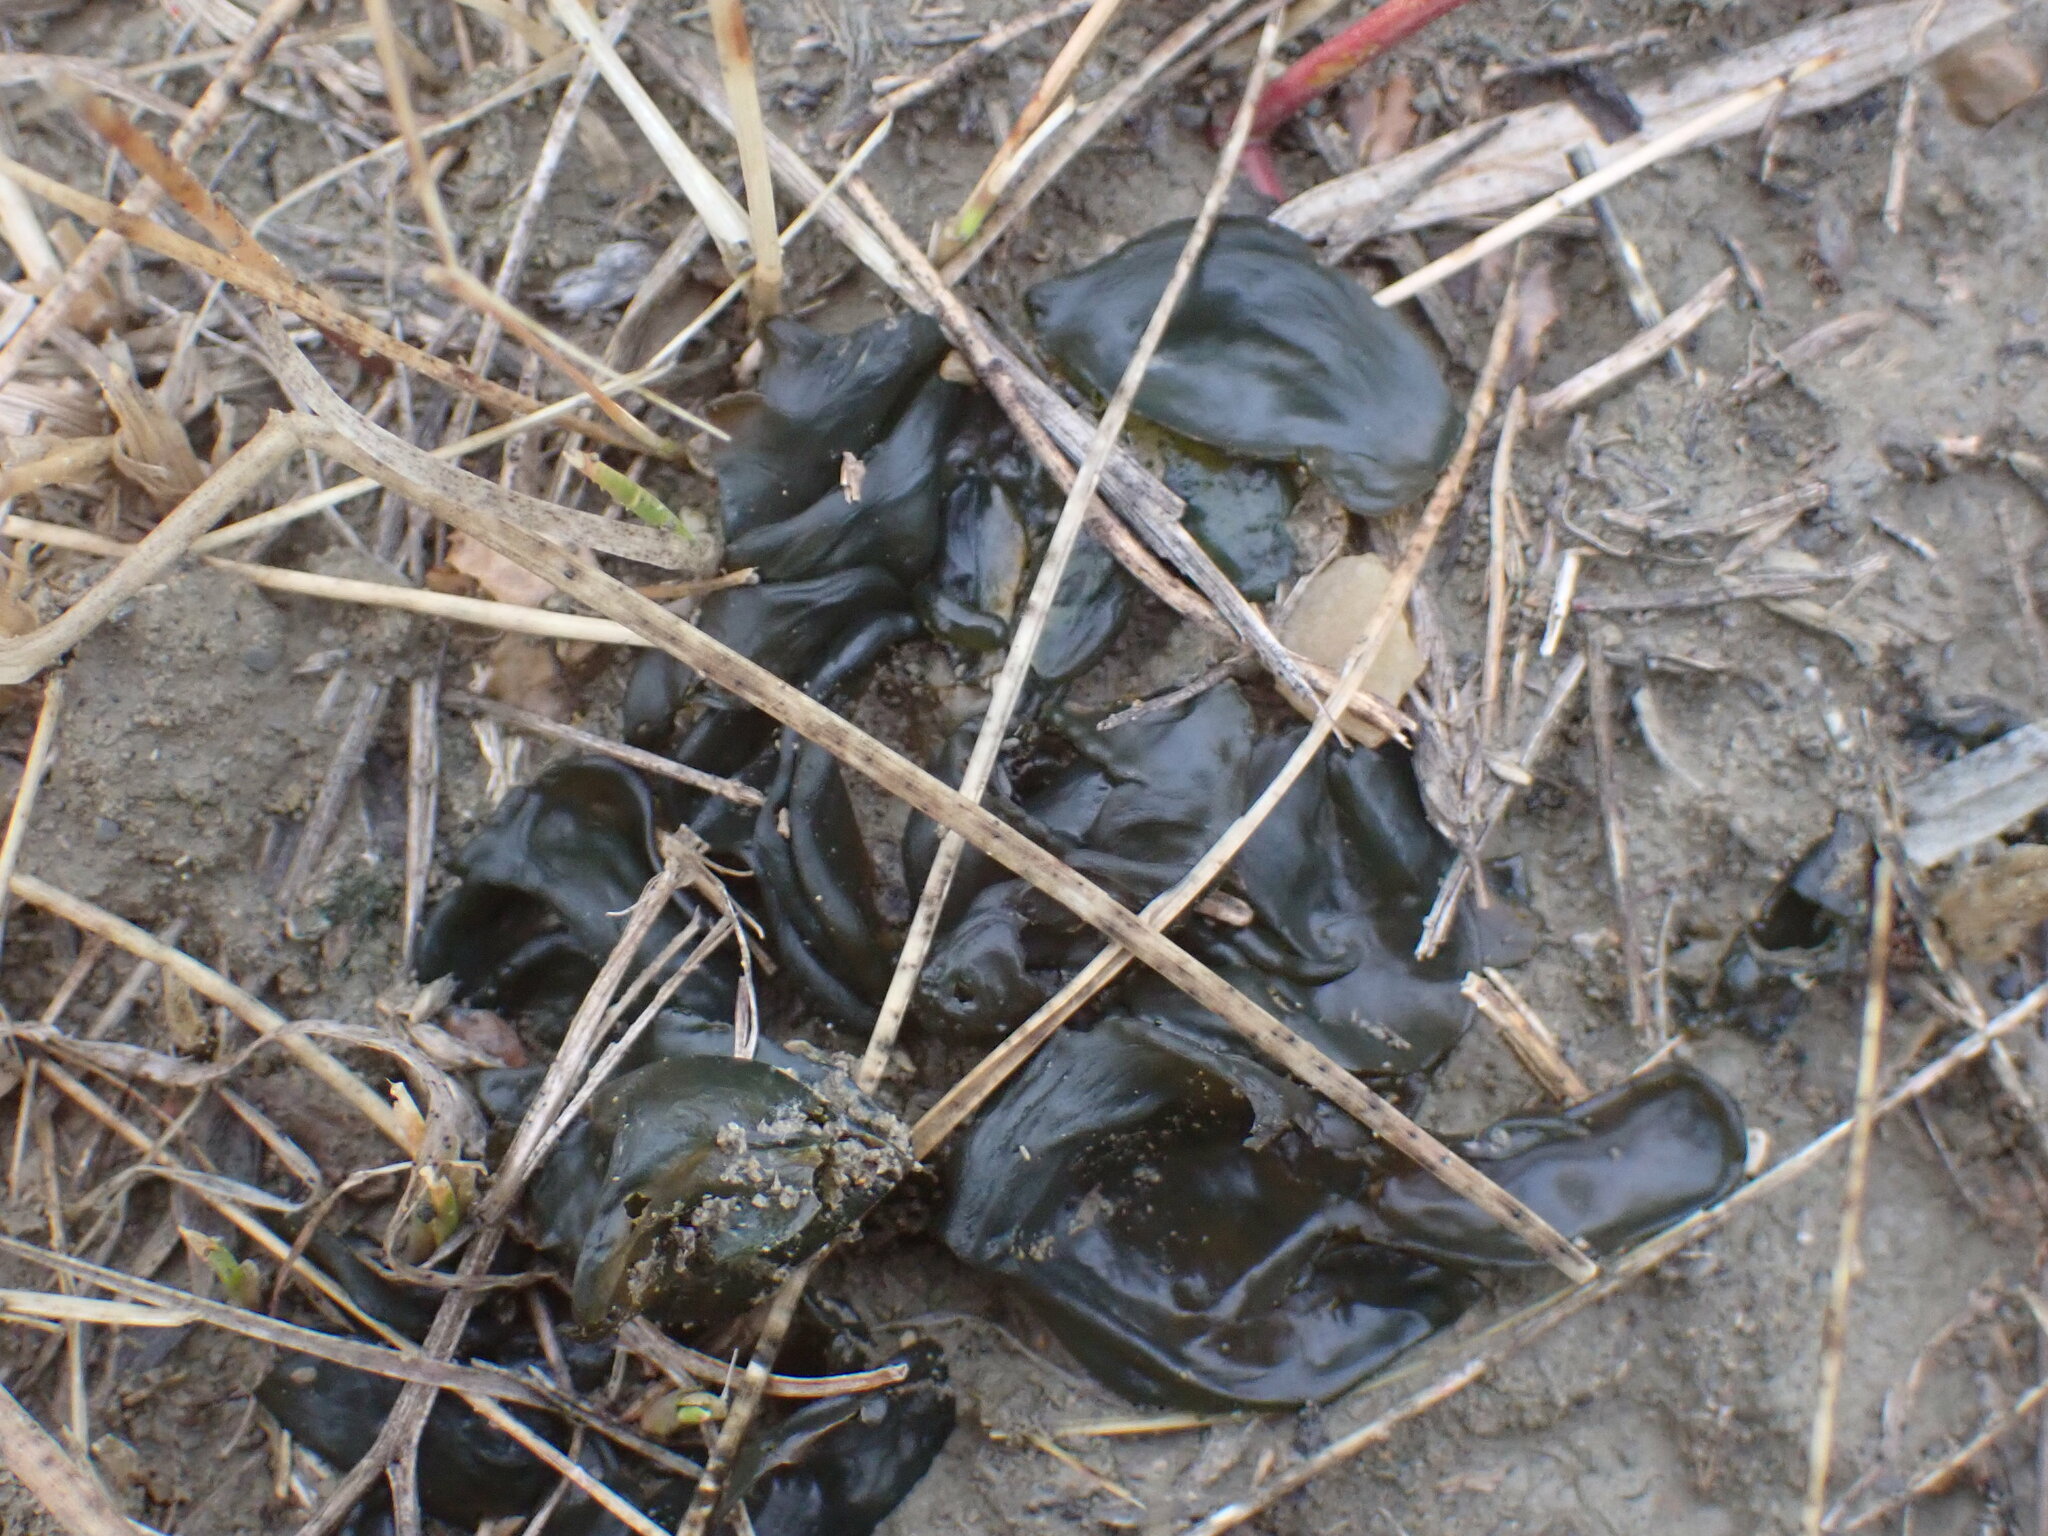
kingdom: Bacteria
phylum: Cyanobacteria
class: Cyanobacteriia
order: Cyanobacteriales
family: Nostocaceae
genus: Nostoc
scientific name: Nostoc commune
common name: Star jelly
